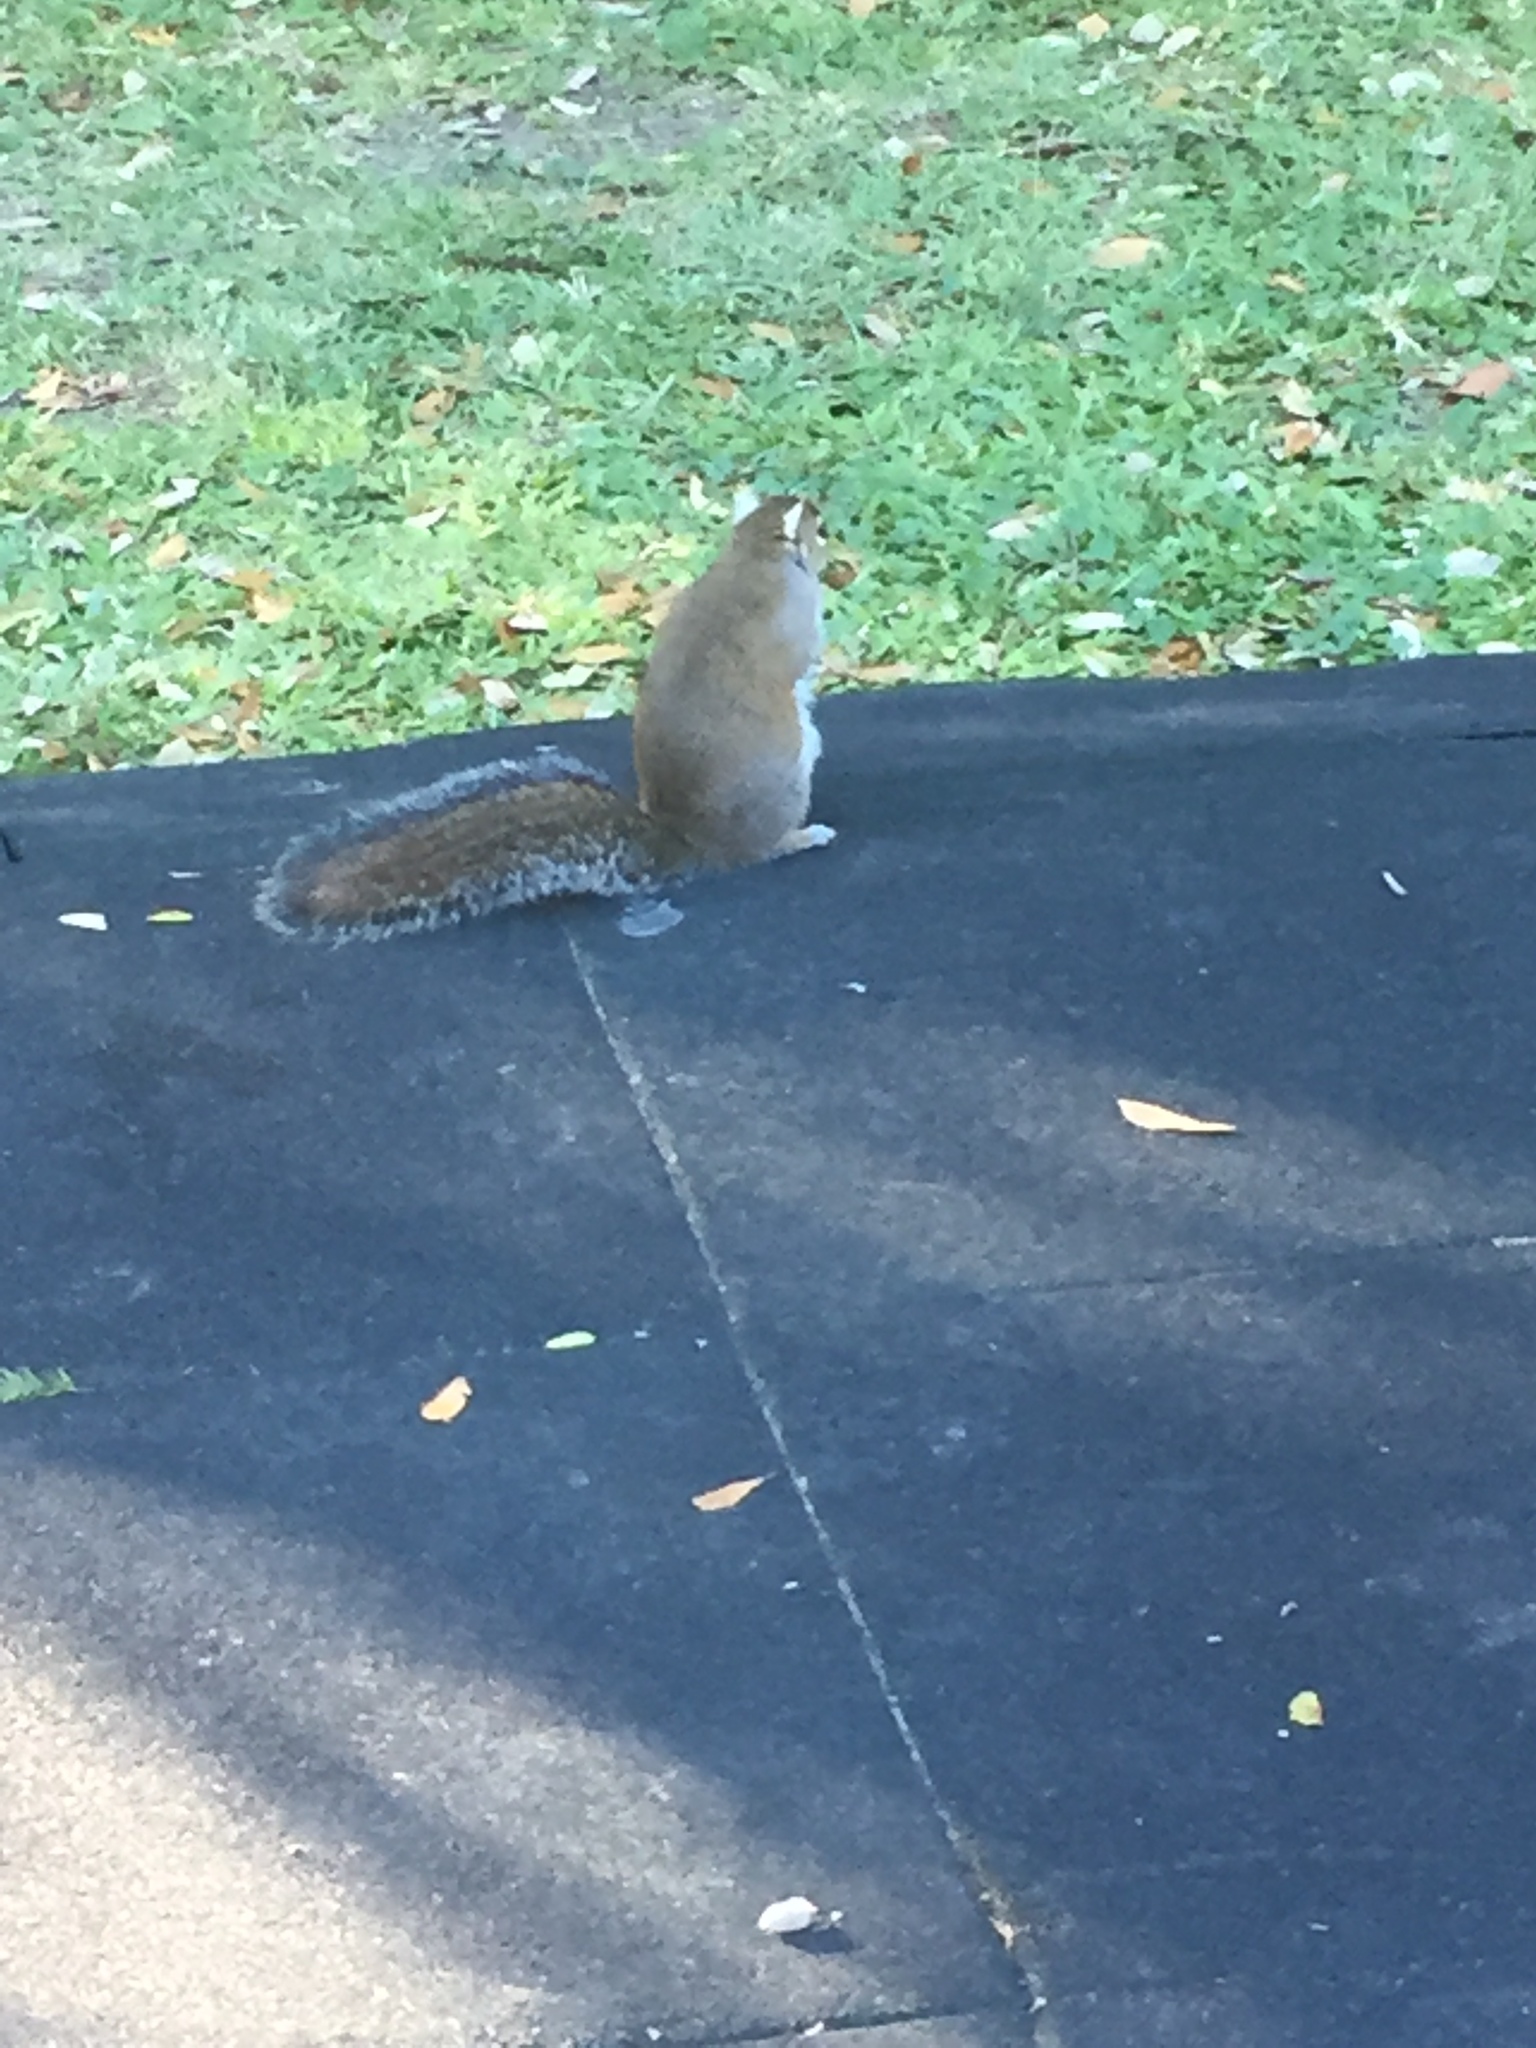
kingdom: Animalia
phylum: Chordata
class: Mammalia
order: Rodentia
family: Sciuridae
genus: Sciurus
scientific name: Sciurus carolinensis
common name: Eastern gray squirrel
